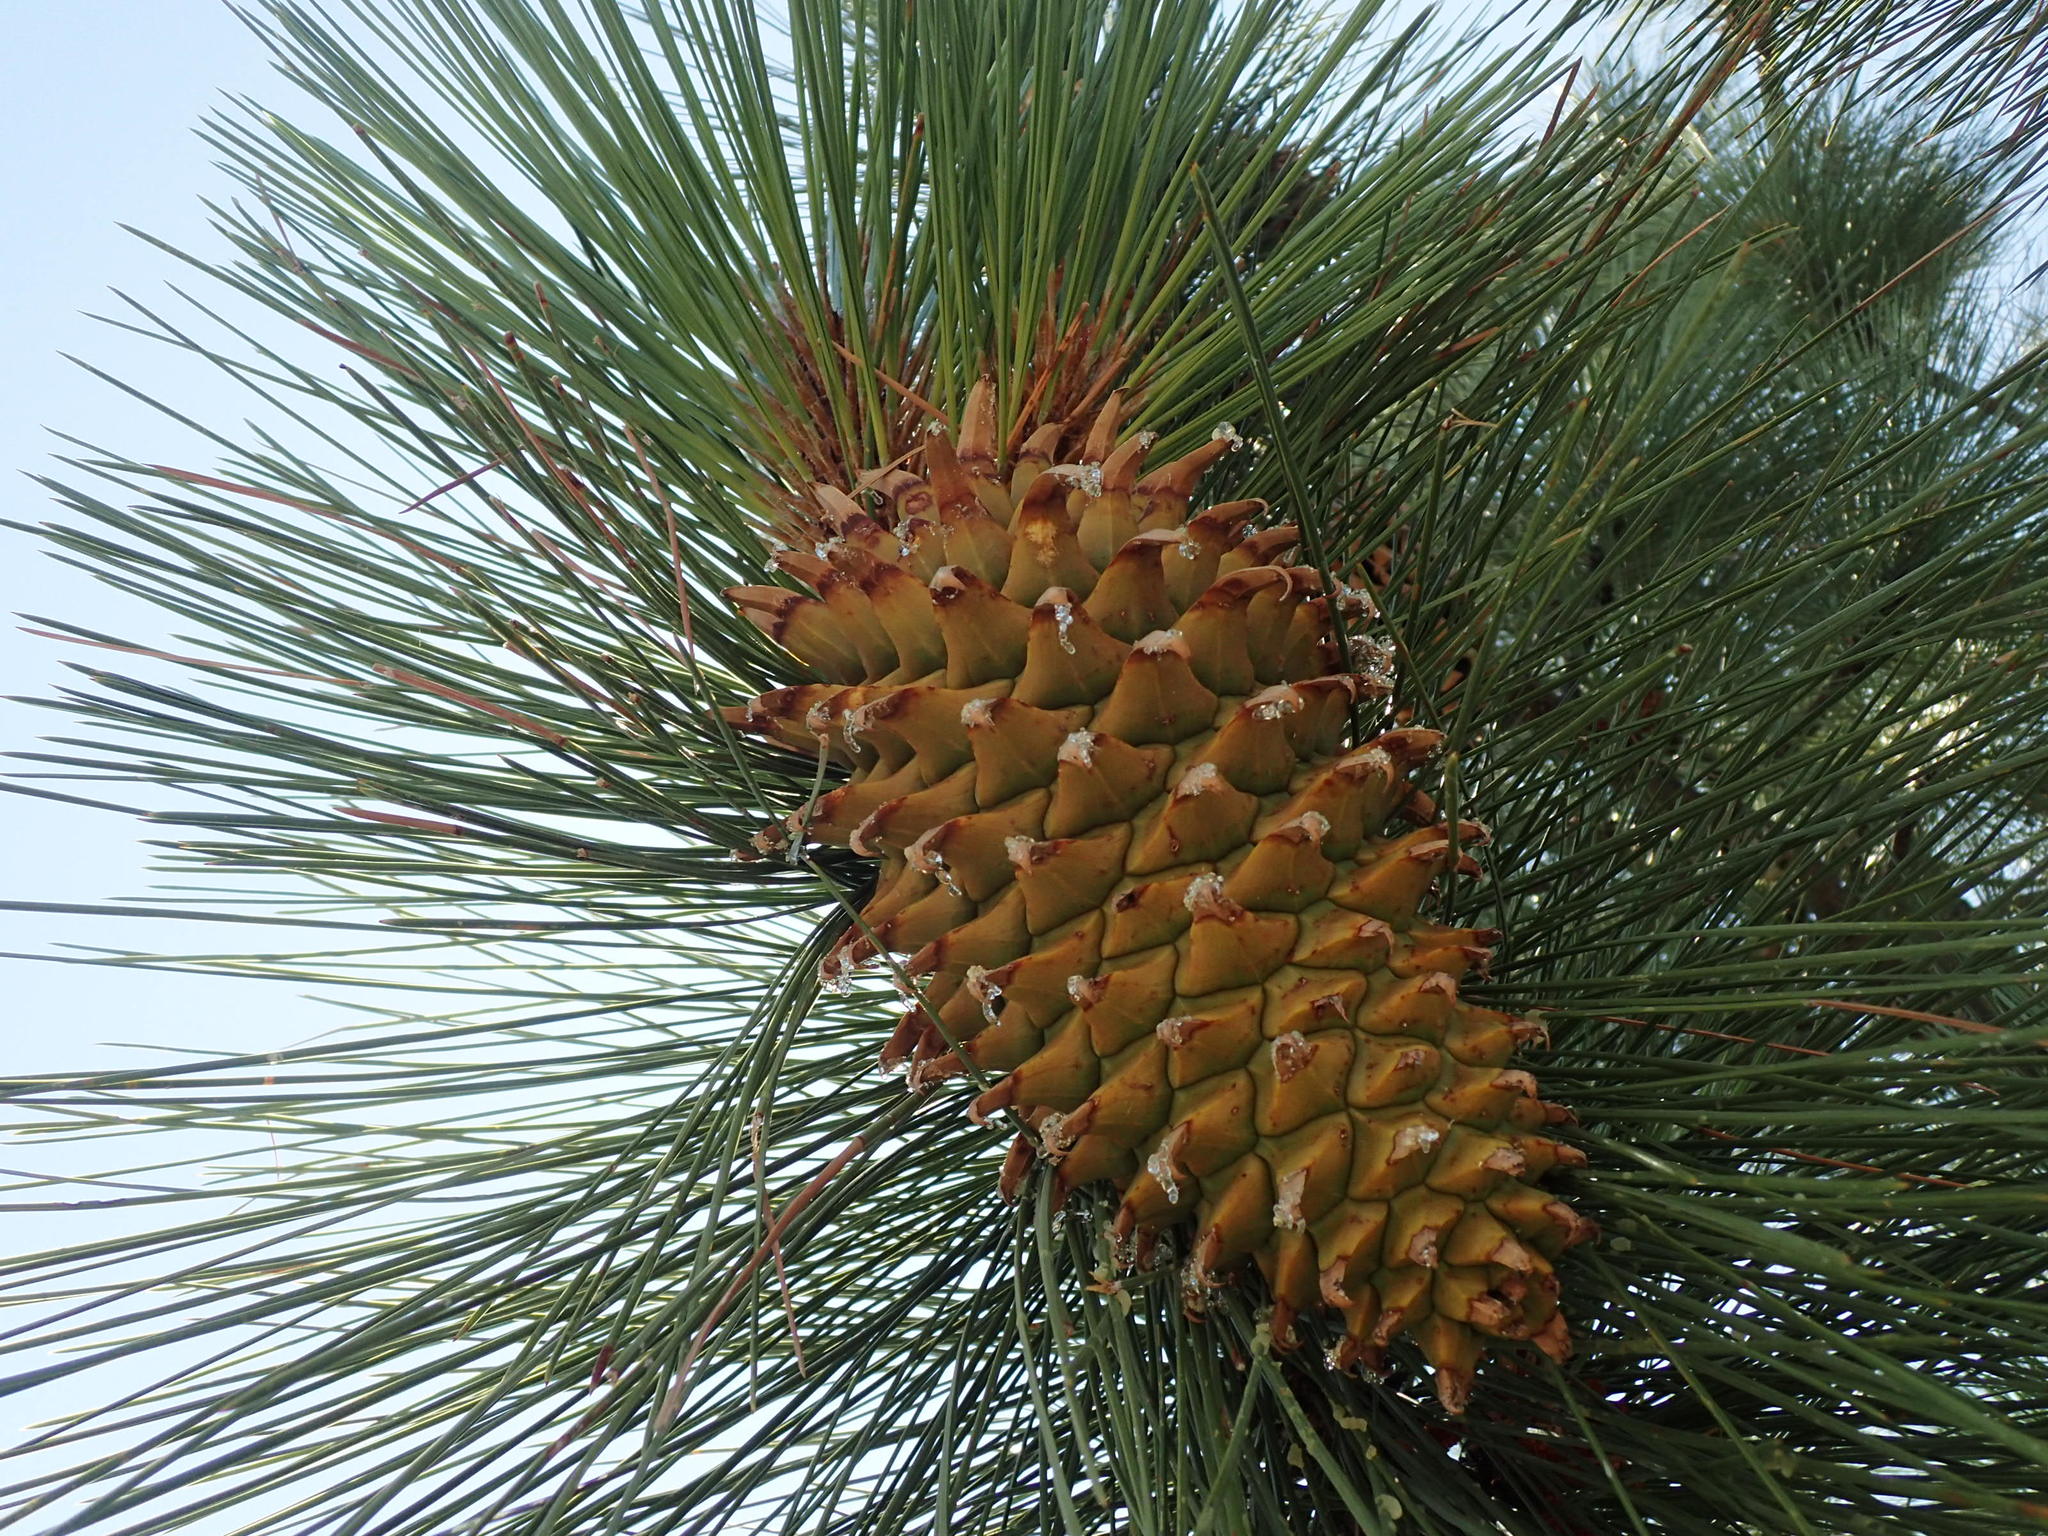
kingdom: Plantae
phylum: Tracheophyta
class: Pinopsida
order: Pinales
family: Pinaceae
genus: Pinus
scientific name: Pinus coulteri
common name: Coulter pine
